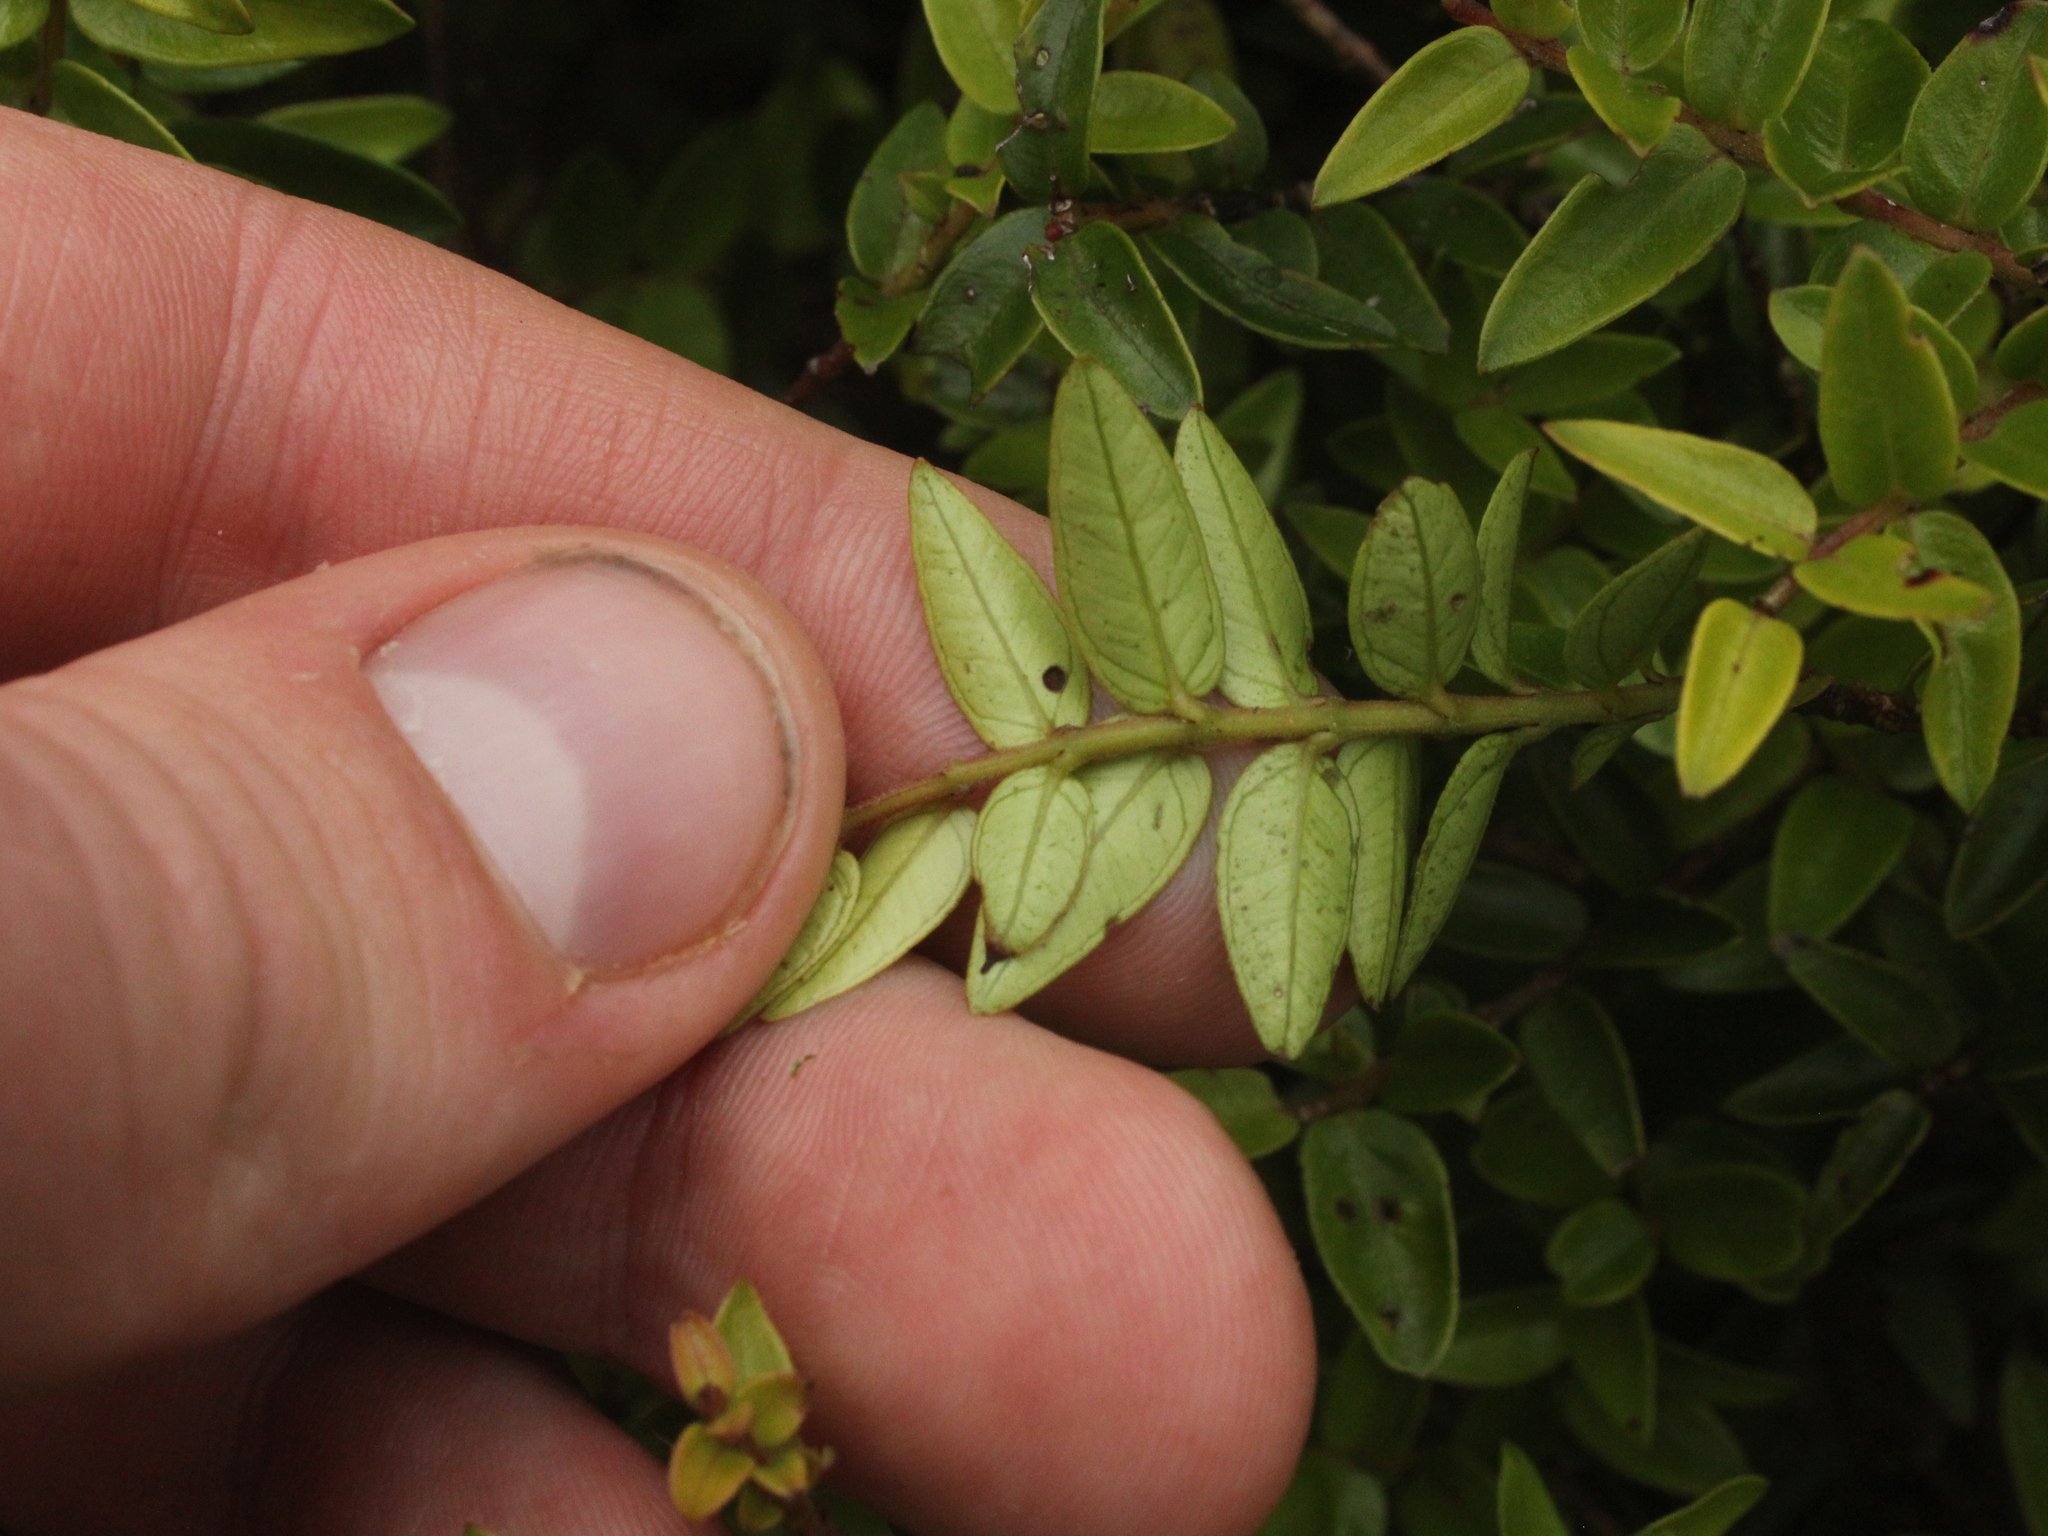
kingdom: Plantae
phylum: Tracheophyta
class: Magnoliopsida
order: Myrtales
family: Myrtaceae
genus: Metrosideros
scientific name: Metrosideros diffusa
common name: Small ratavine
